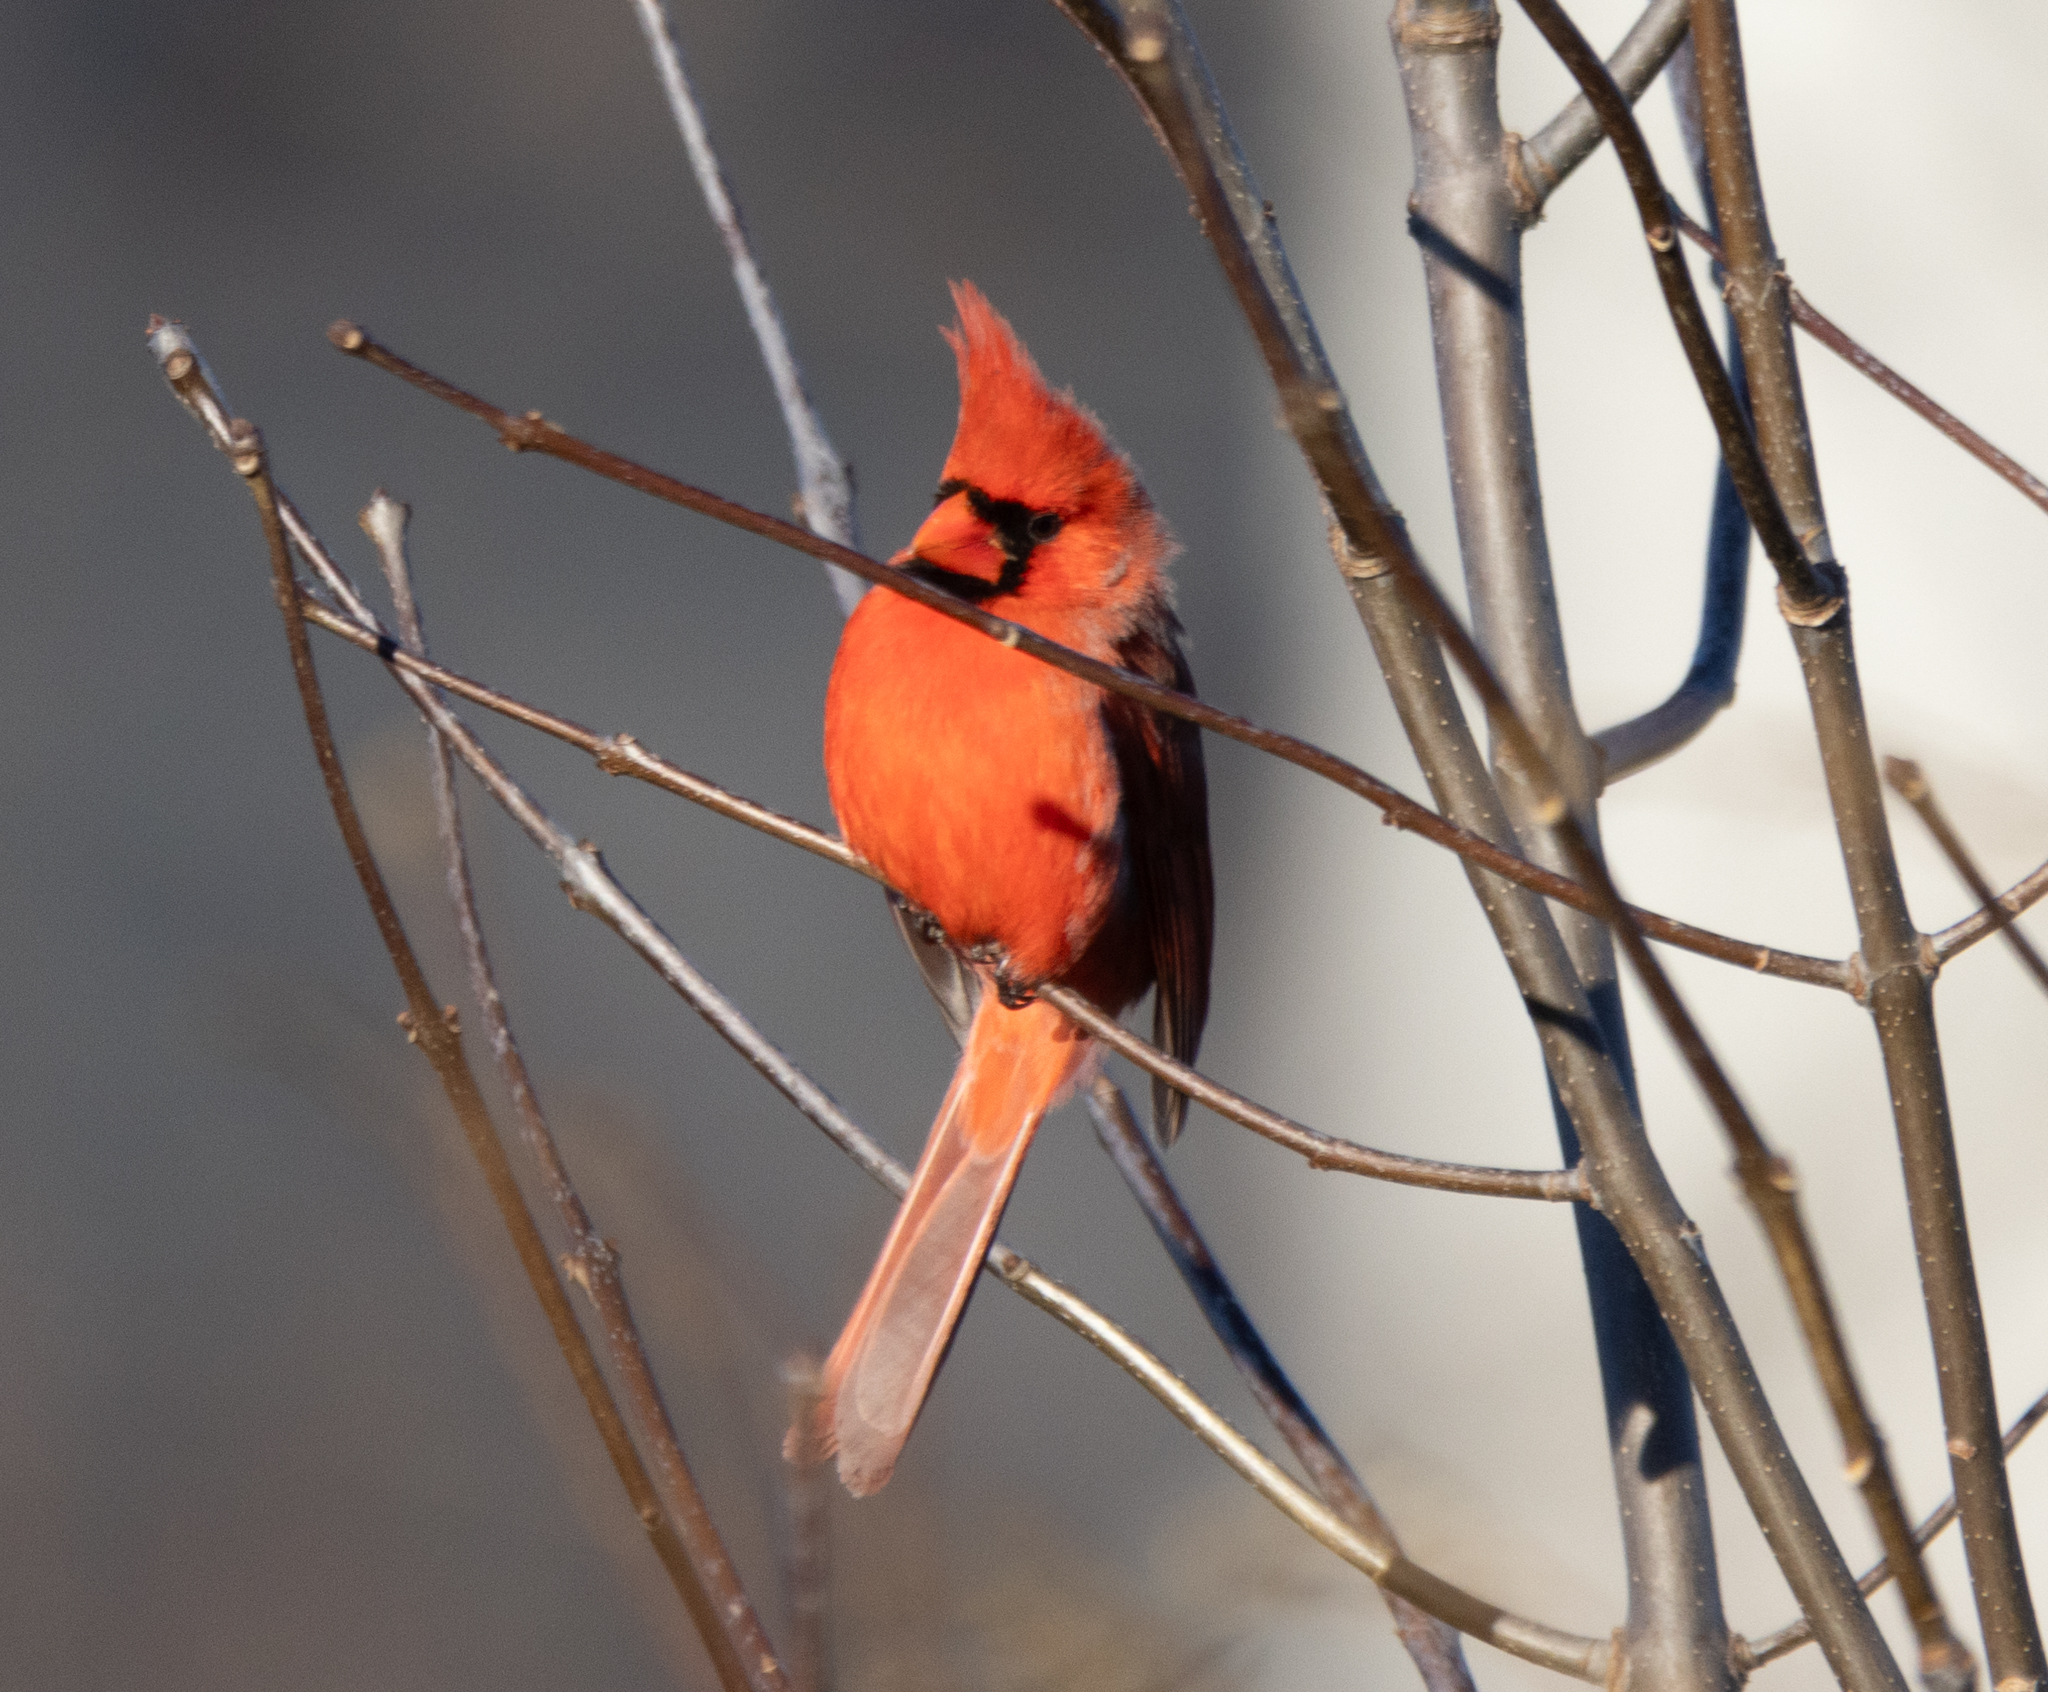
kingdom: Animalia
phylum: Chordata
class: Aves
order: Passeriformes
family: Cardinalidae
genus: Cardinalis
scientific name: Cardinalis cardinalis
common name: Northern cardinal
